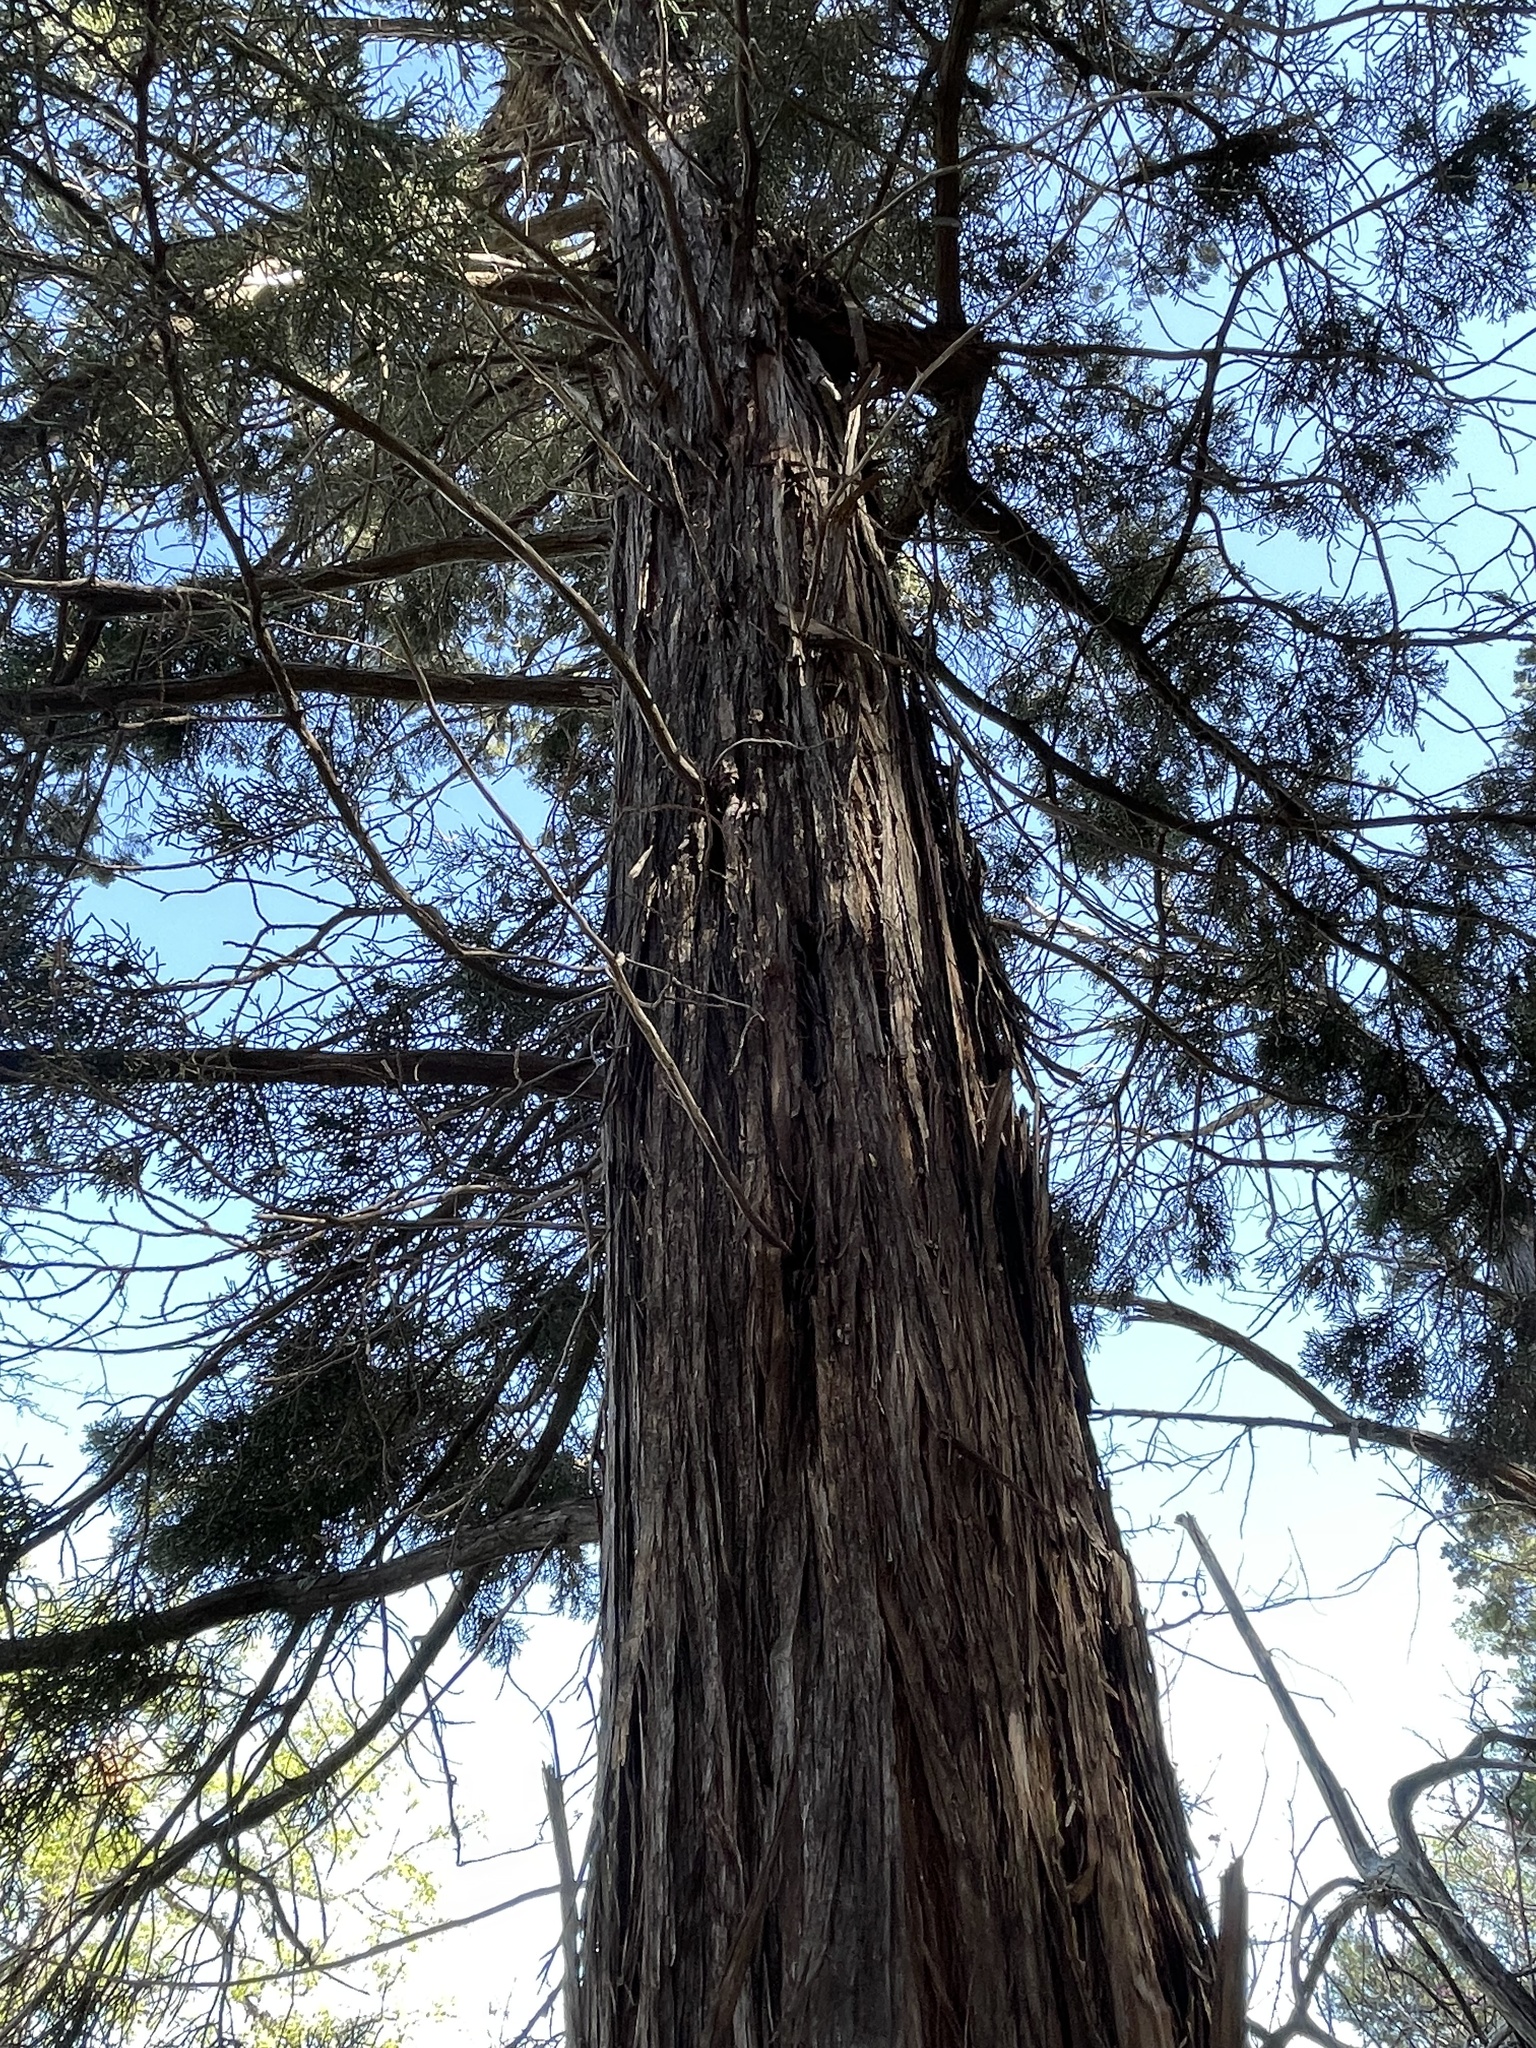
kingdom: Plantae
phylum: Tracheophyta
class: Pinopsida
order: Pinales
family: Cupressaceae
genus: Juniperus
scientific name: Juniperus ashei
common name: Mexican juniper
